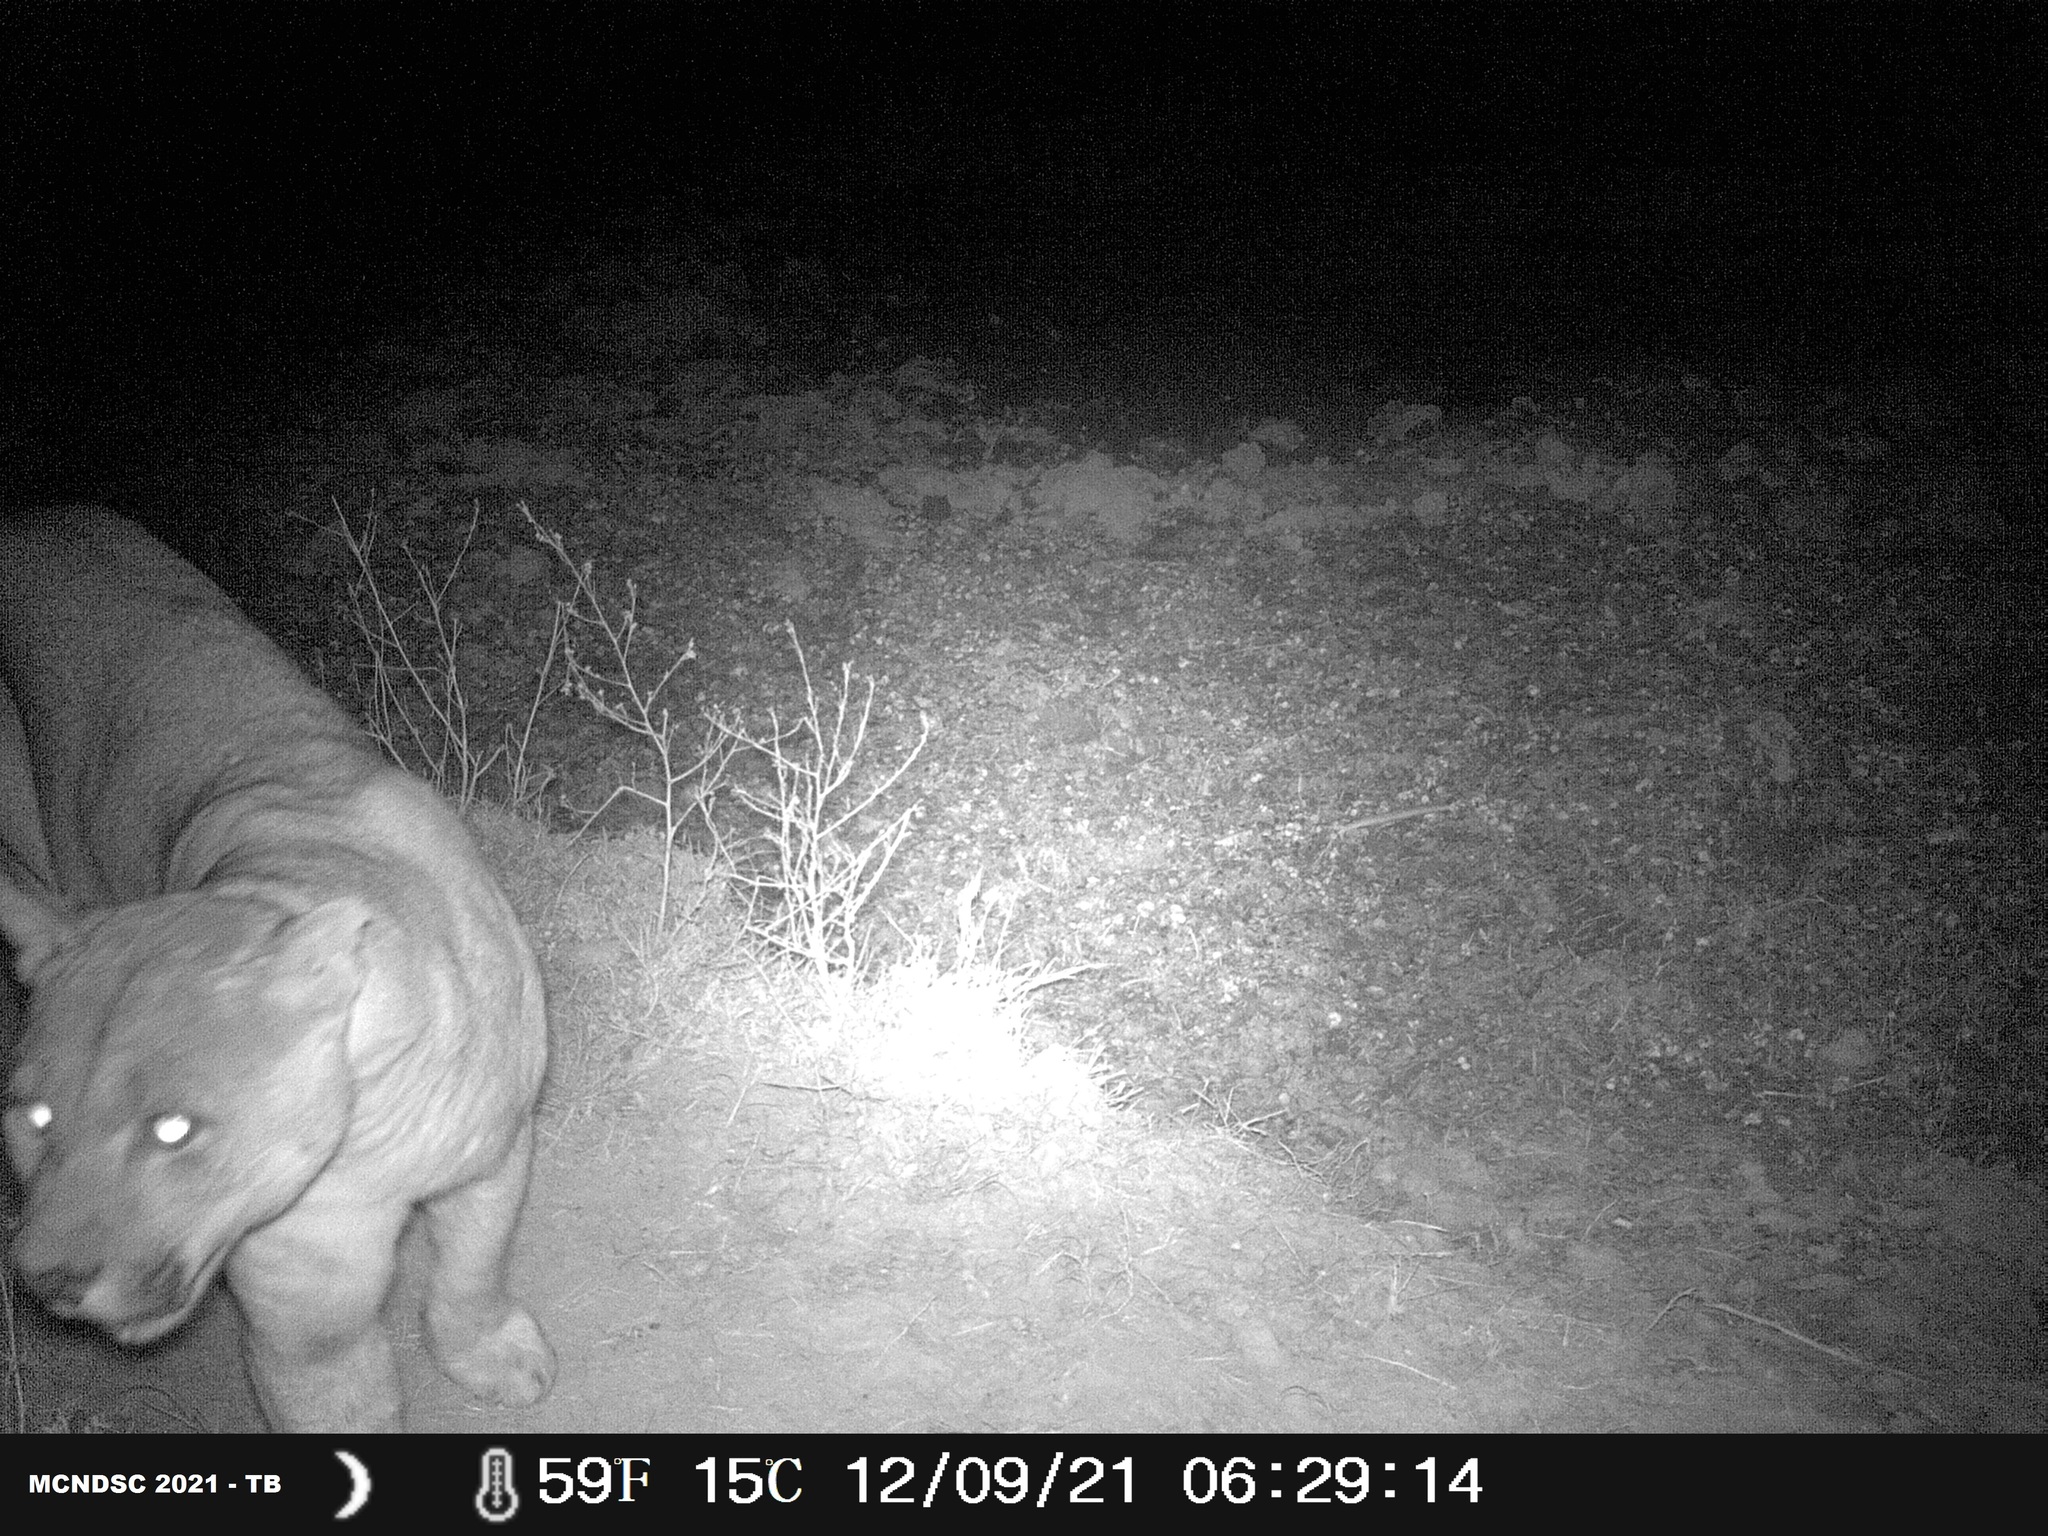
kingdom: Animalia
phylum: Chordata
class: Mammalia
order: Carnivora
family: Felidae
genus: Puma
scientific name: Puma concolor
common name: Puma
